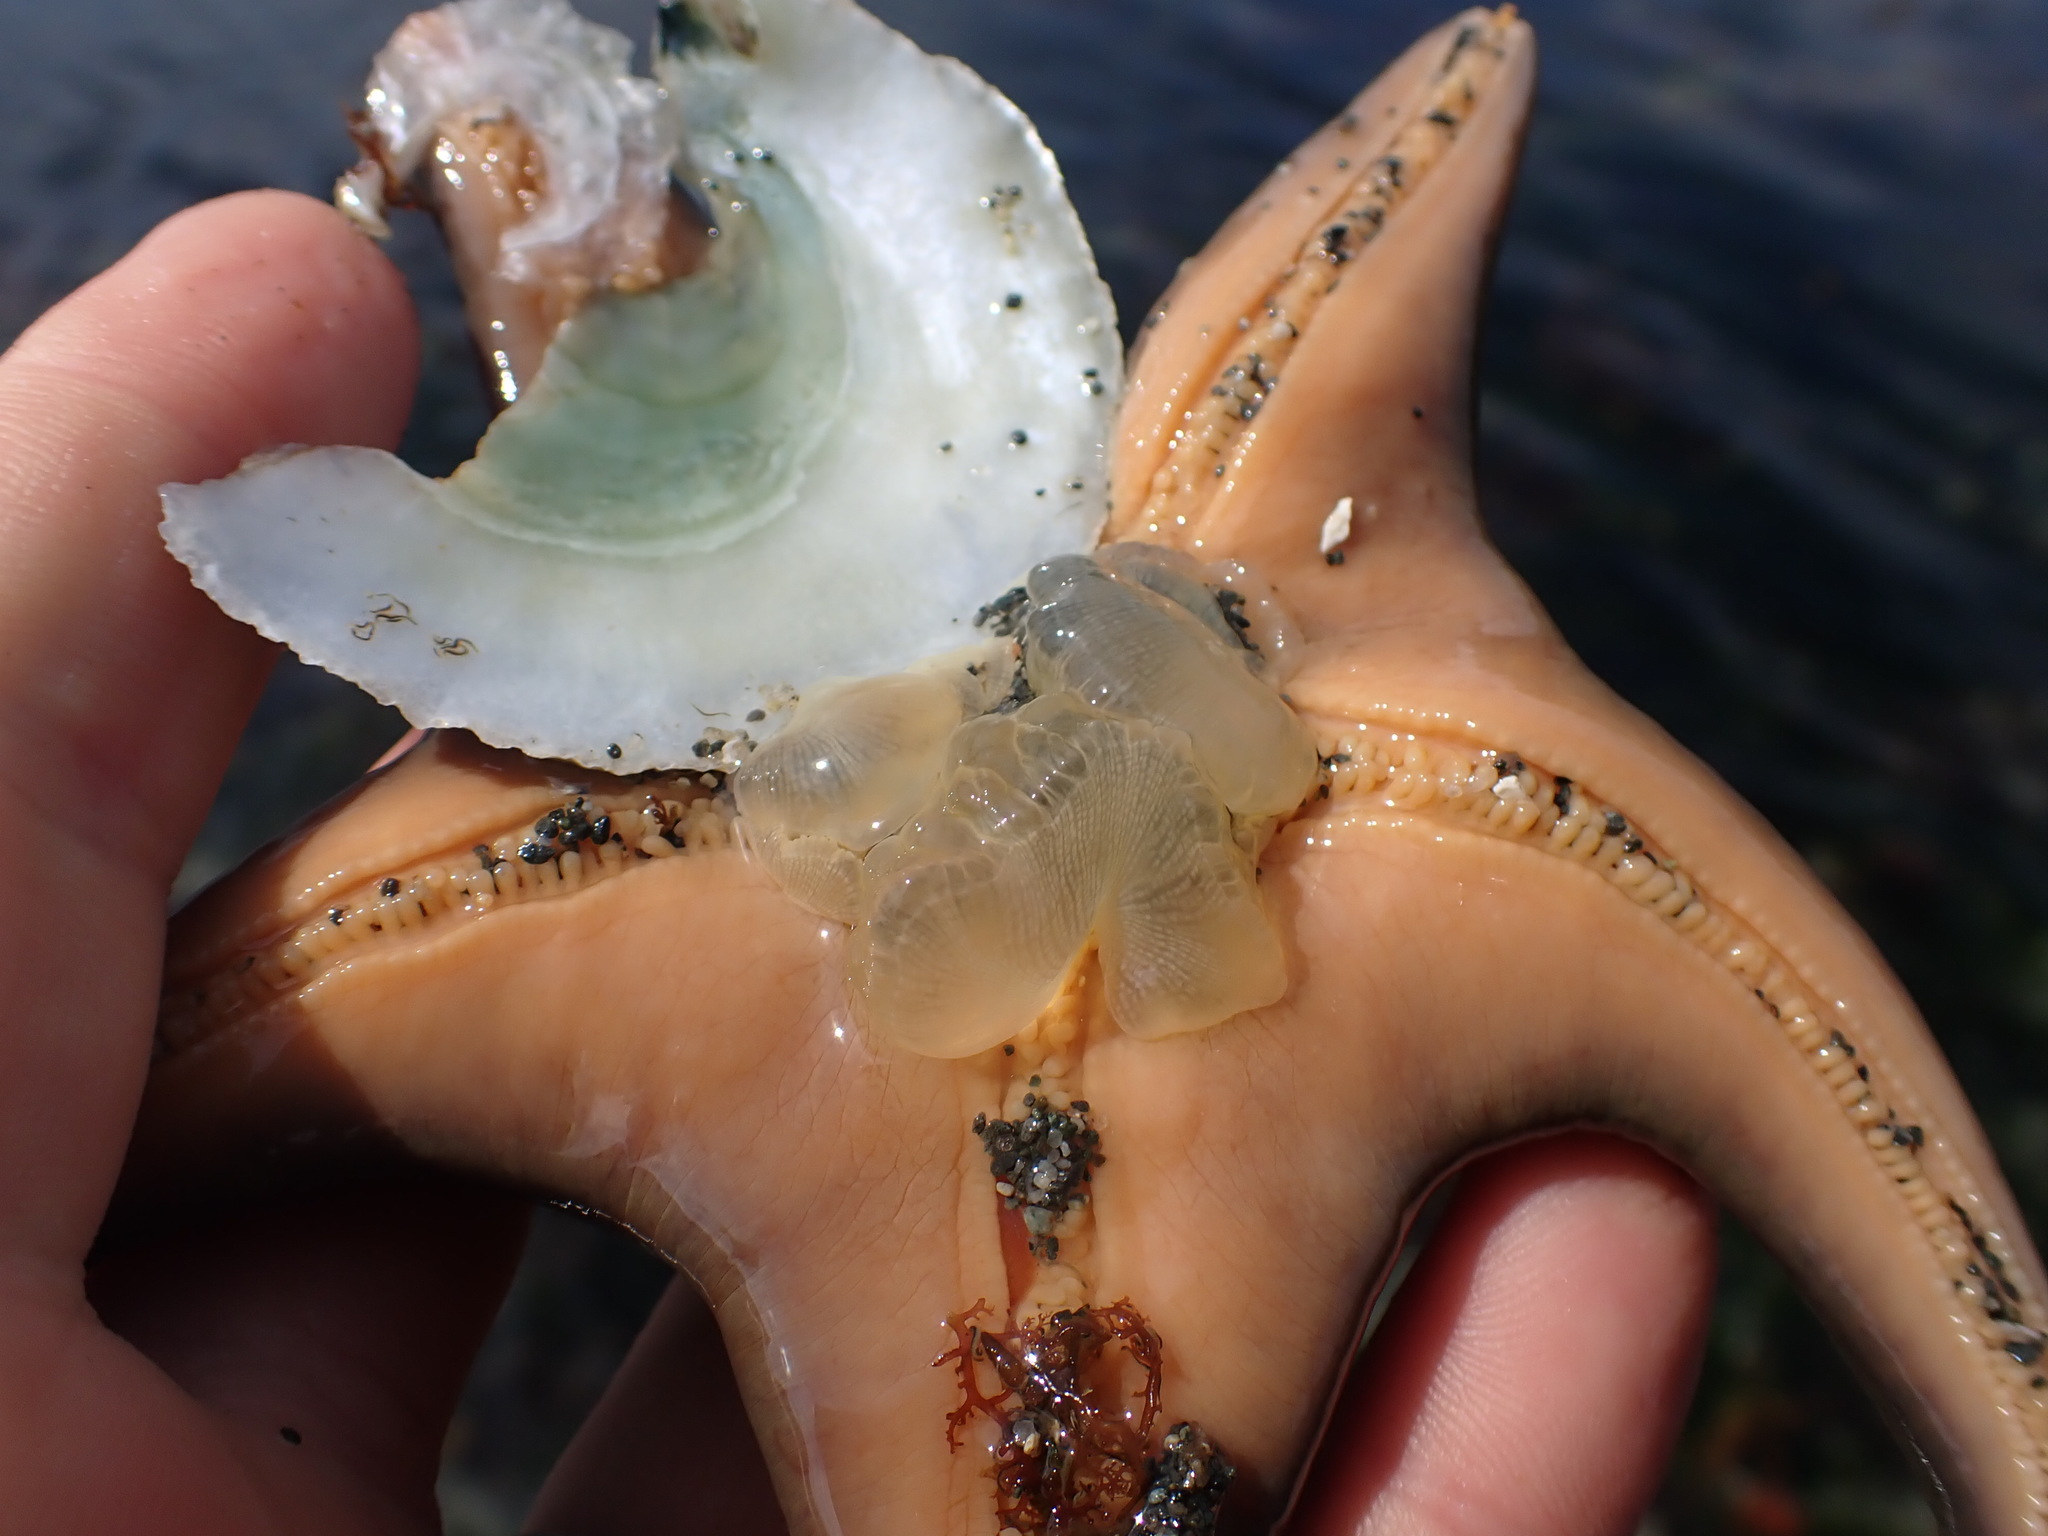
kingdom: Animalia
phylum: Echinodermata
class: Asteroidea
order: Valvatida
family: Asteropseidae
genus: Dermasterias
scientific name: Dermasterias imbricata
